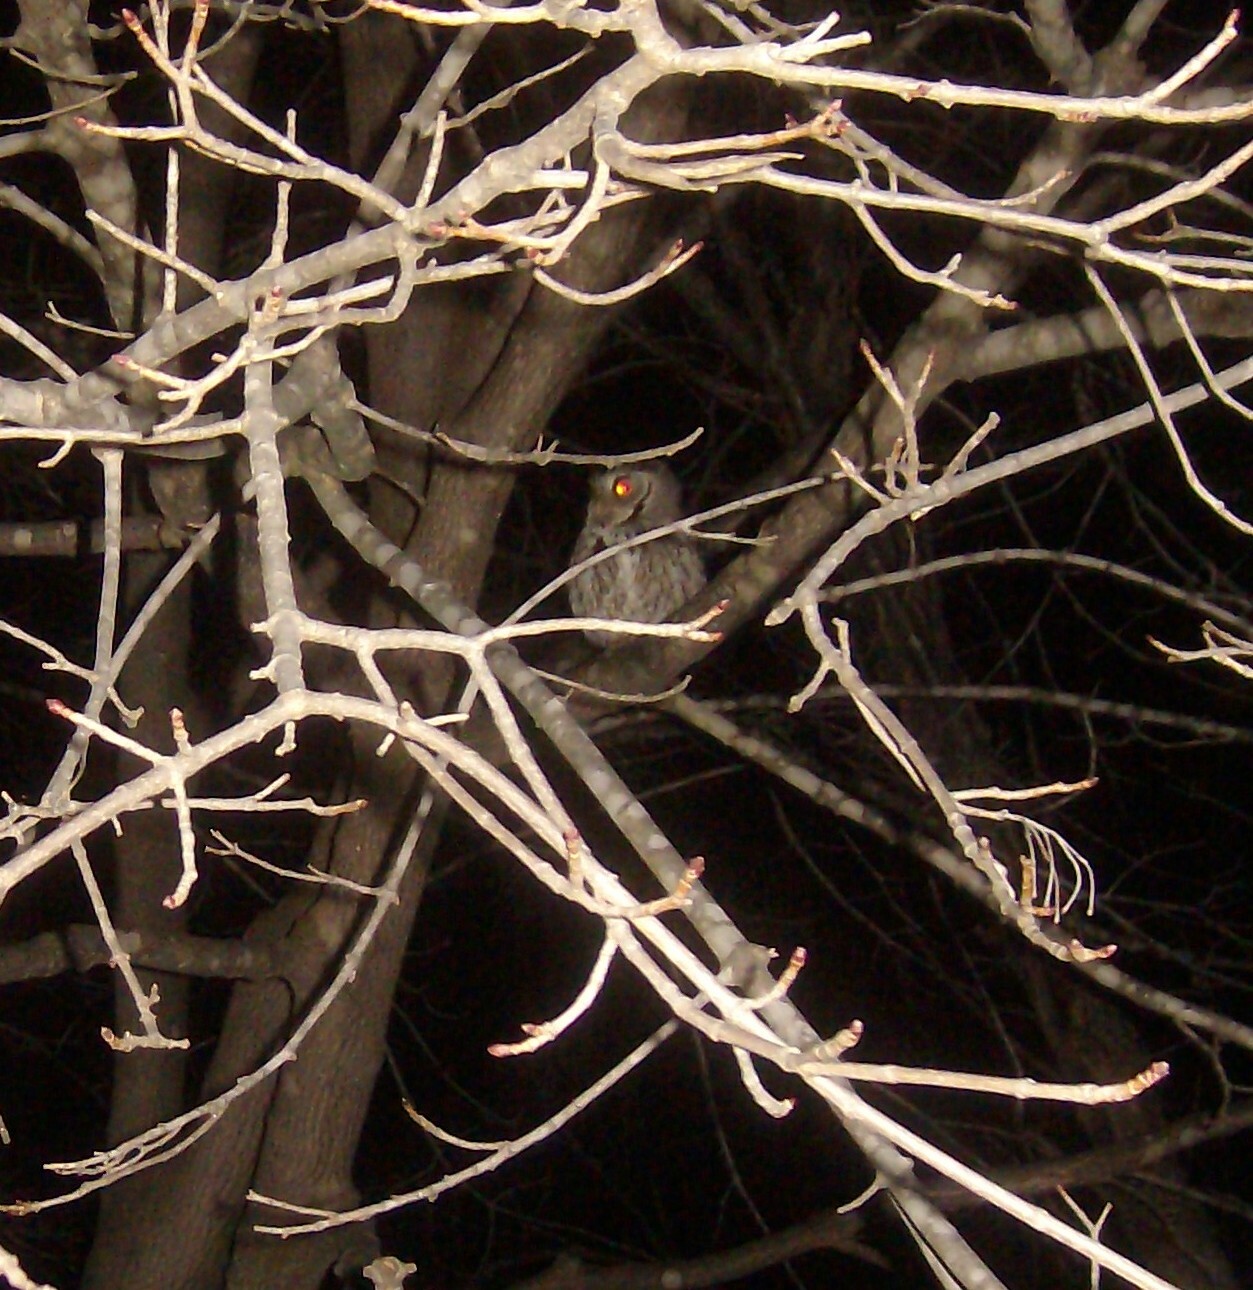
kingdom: Animalia
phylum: Chordata
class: Aves
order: Strigiformes
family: Strigidae
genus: Megascops
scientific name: Megascops asio
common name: Eastern screech-owl
